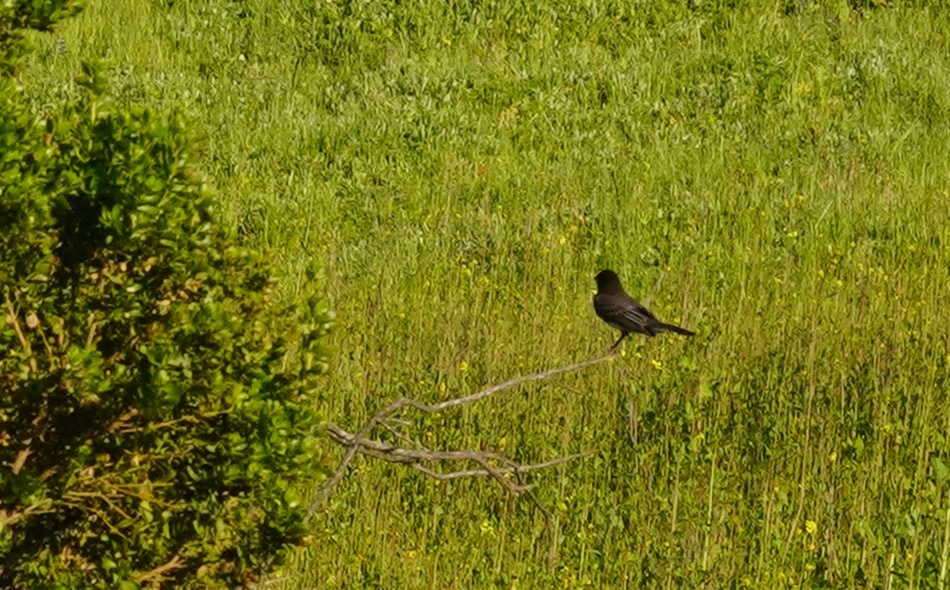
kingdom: Animalia
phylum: Chordata
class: Aves
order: Passeriformes
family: Tyrannidae
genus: Sayornis
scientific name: Sayornis nigricans
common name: Black phoebe
